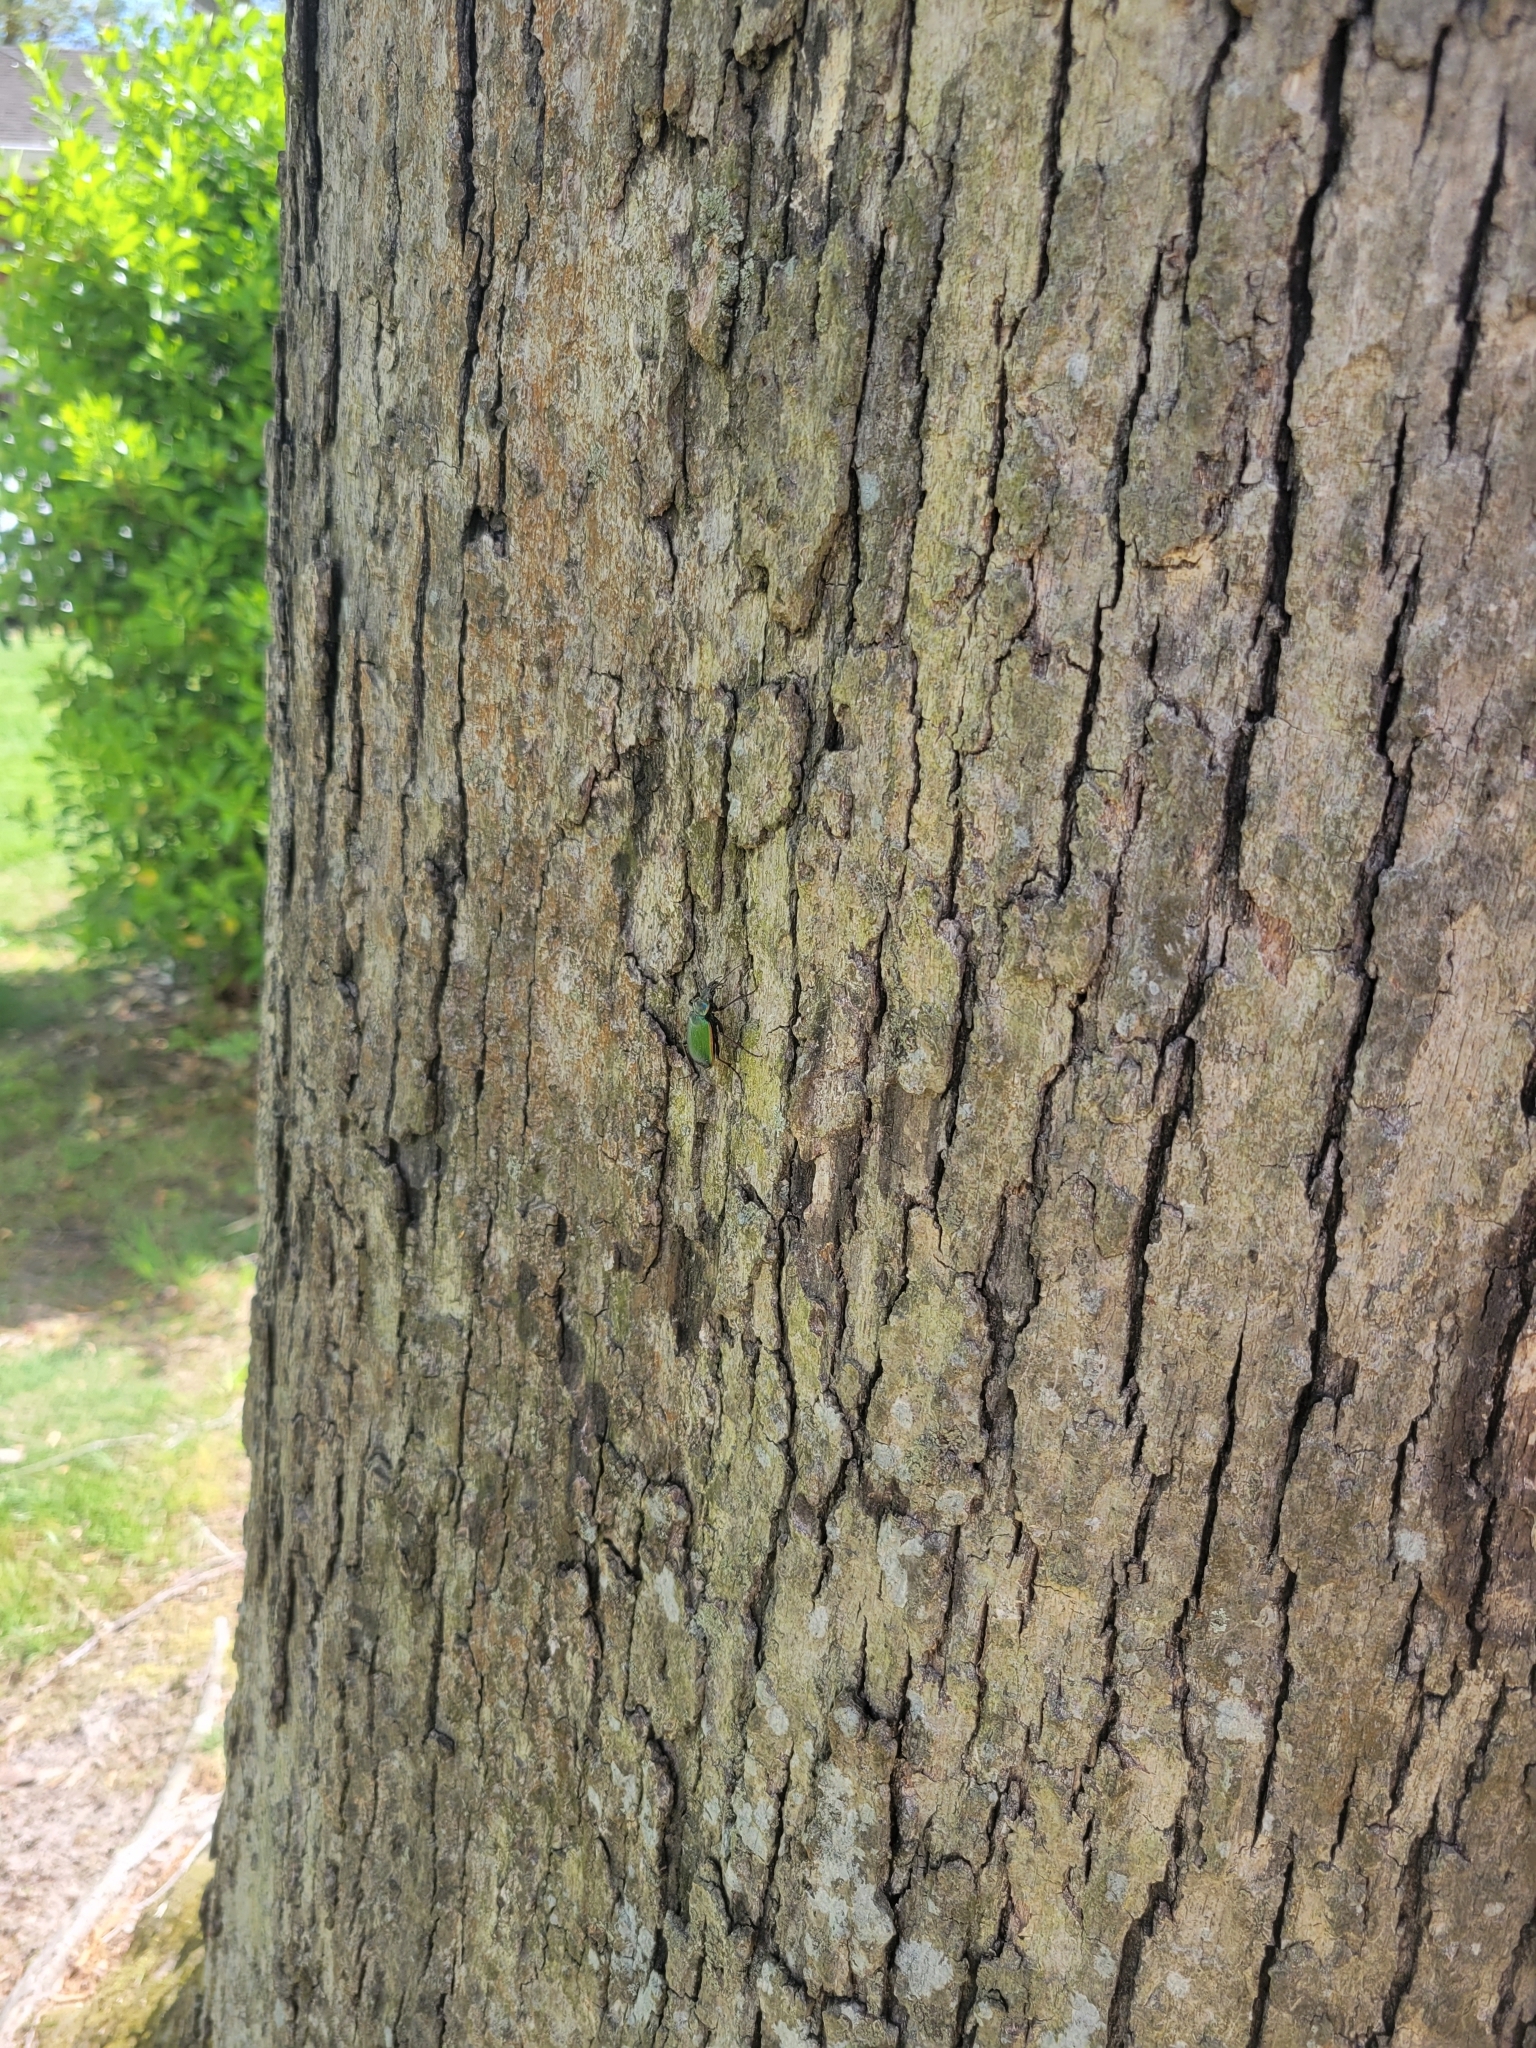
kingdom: Animalia
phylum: Arthropoda
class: Insecta
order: Coleoptera
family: Carabidae
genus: Calosoma
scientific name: Calosoma scrutator
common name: Fiery searcher beetle
